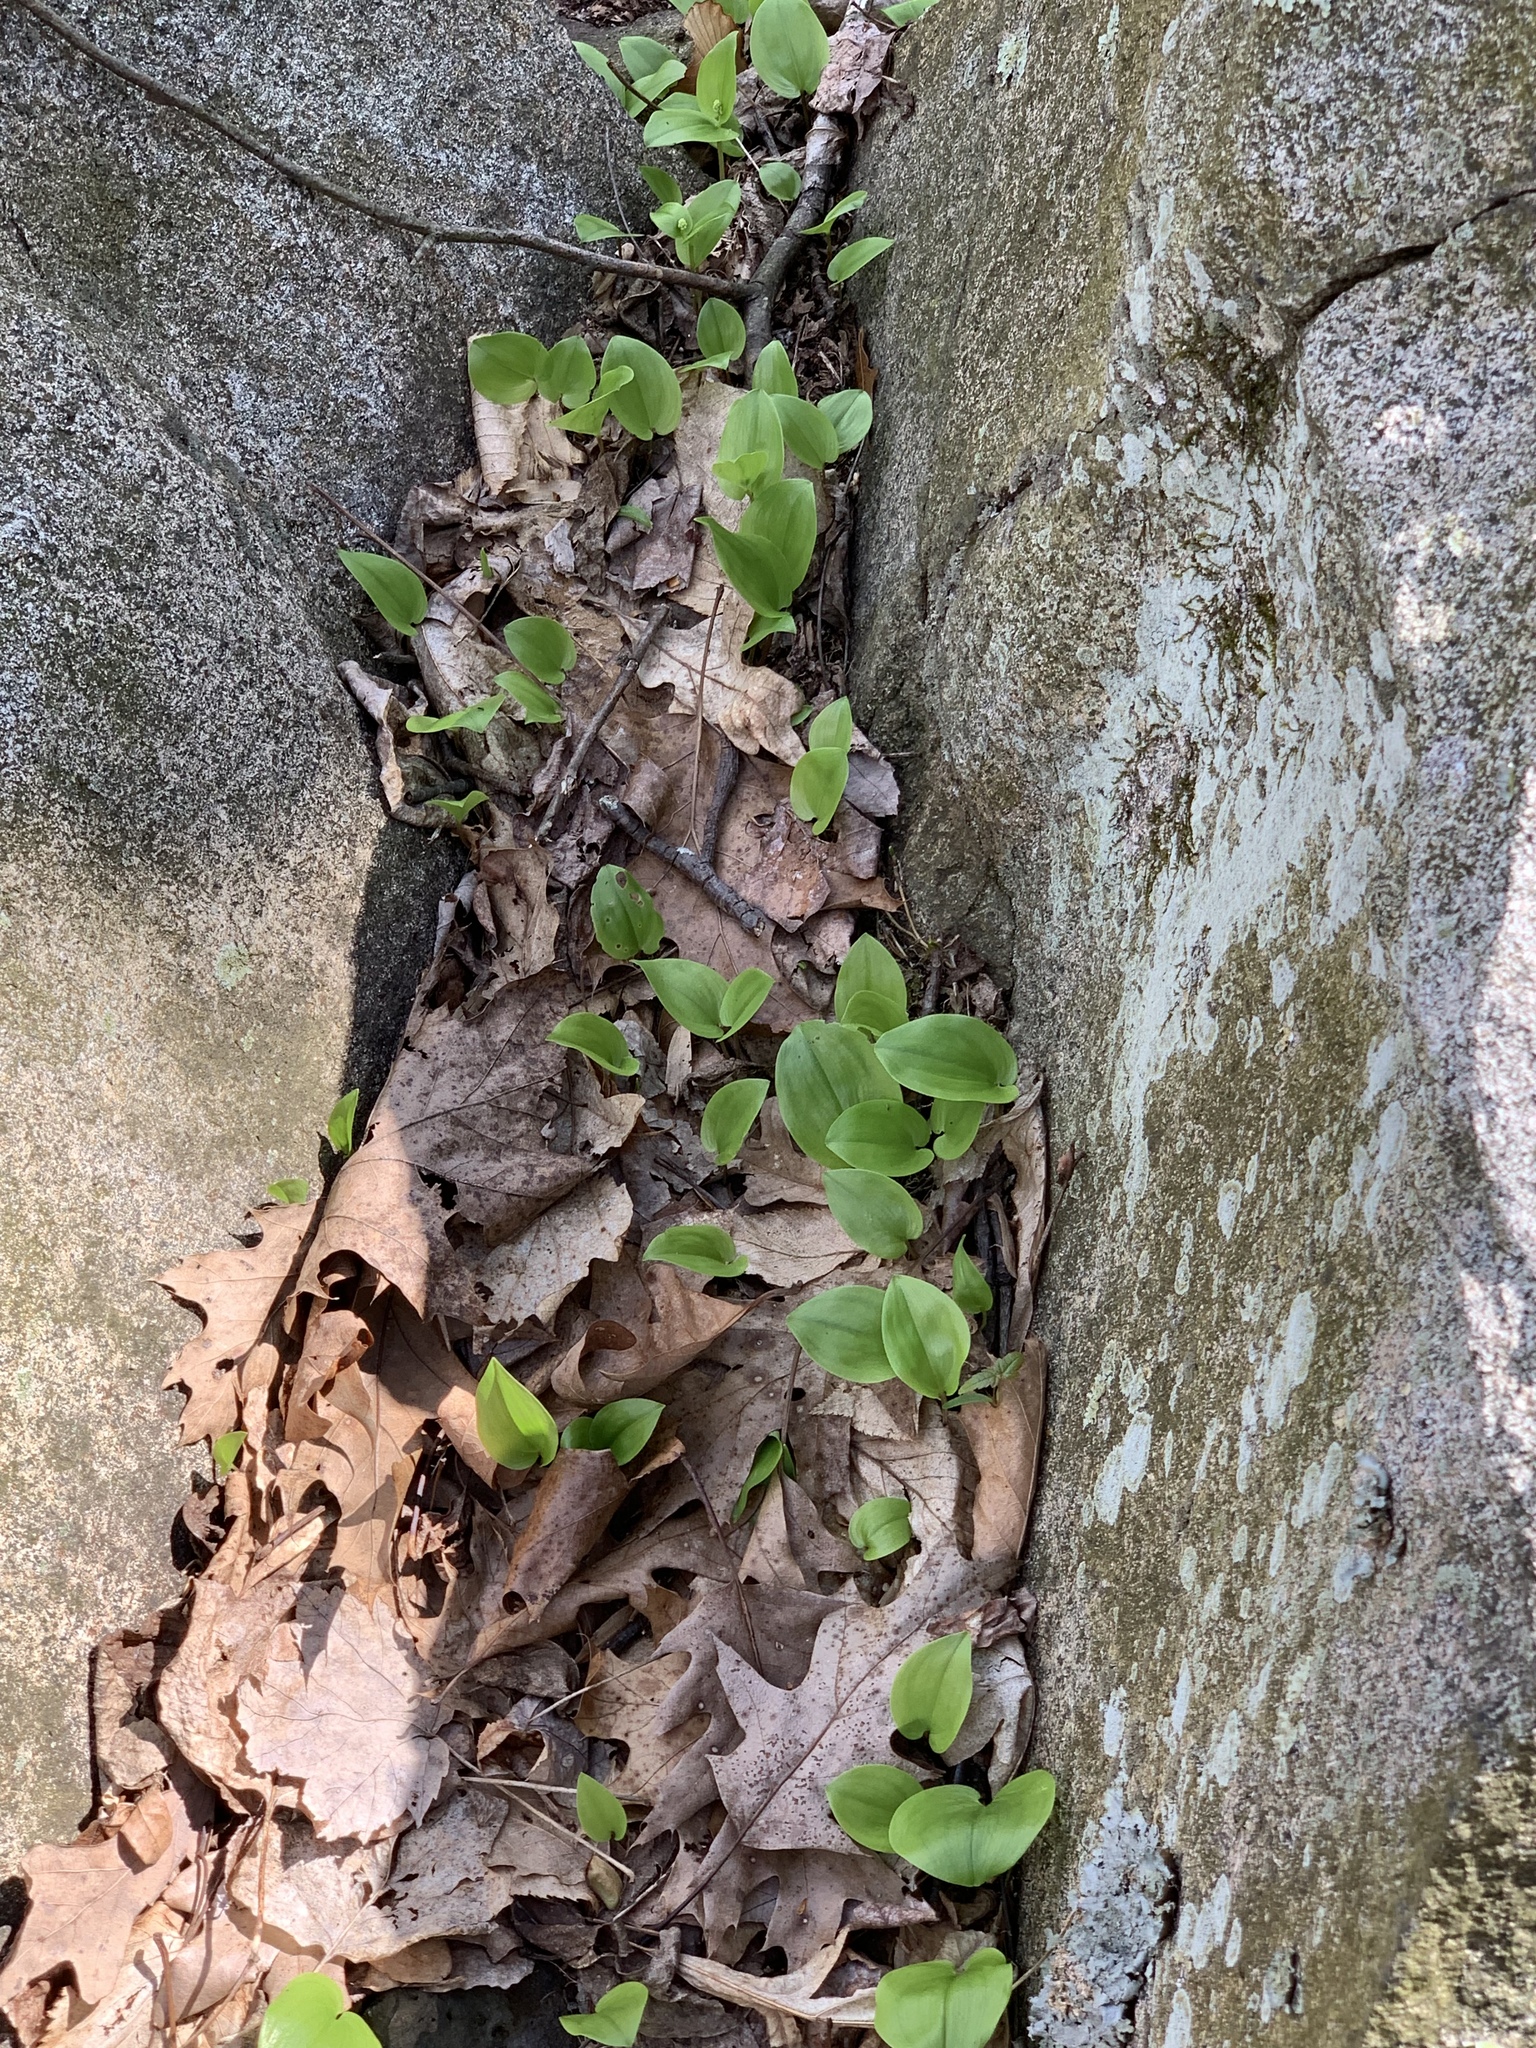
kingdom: Plantae
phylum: Tracheophyta
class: Liliopsida
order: Asparagales
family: Asparagaceae
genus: Maianthemum
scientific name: Maianthemum canadense
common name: False lily-of-the-valley
